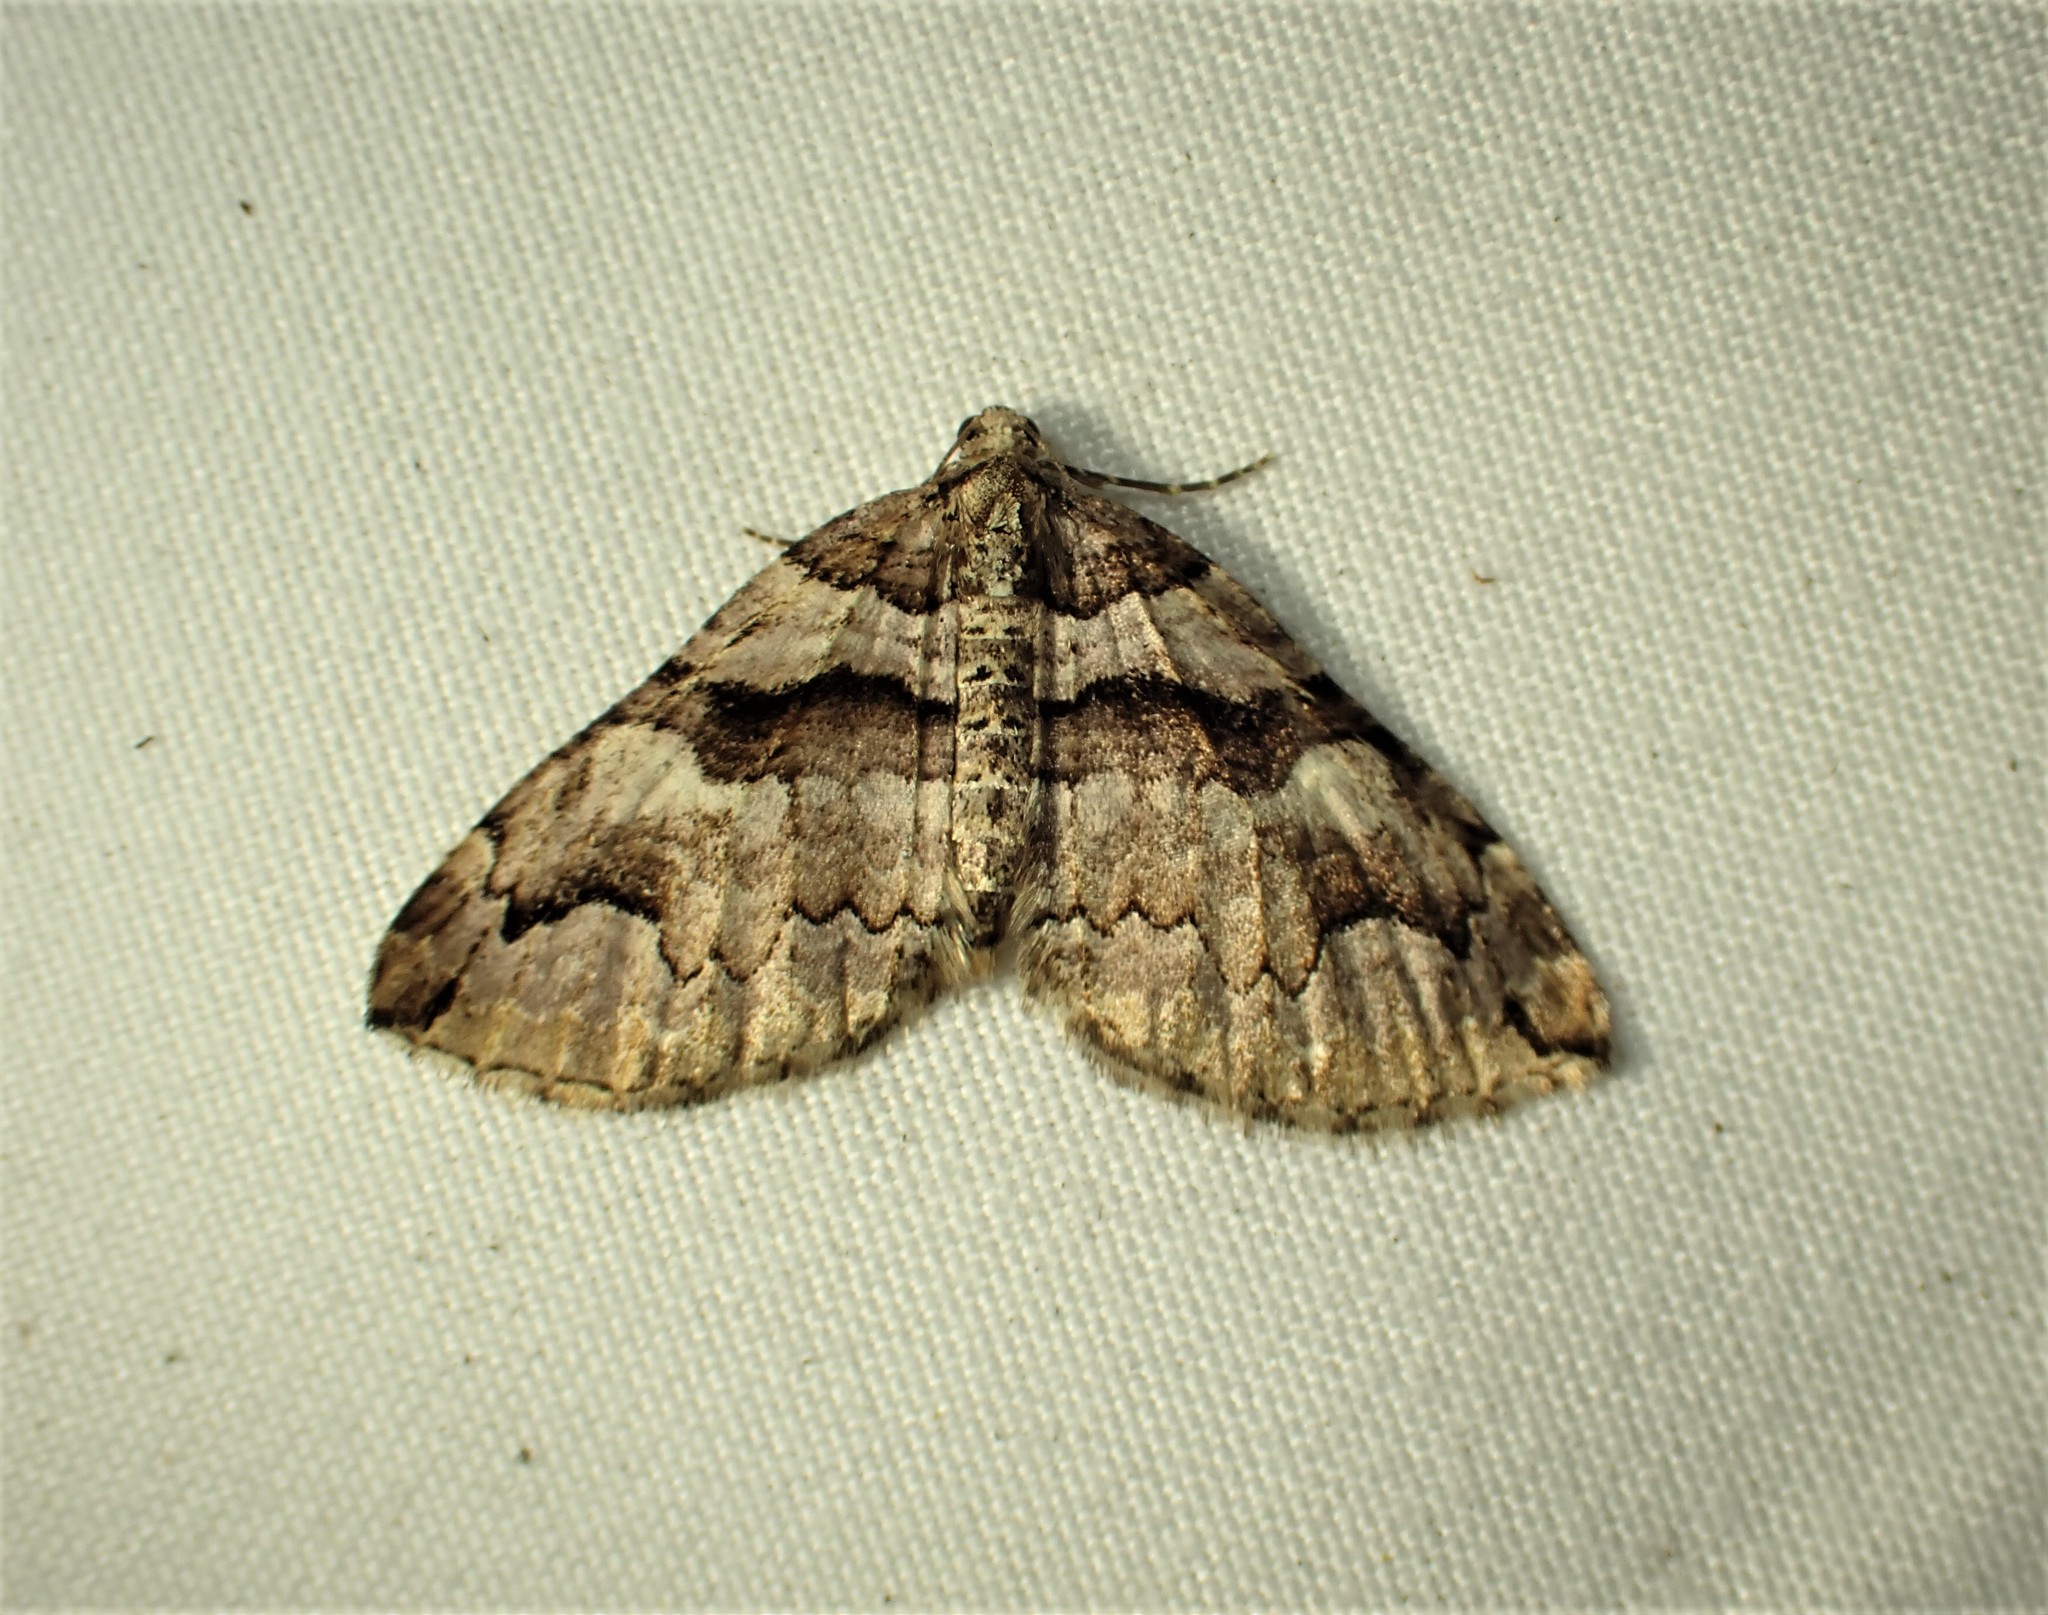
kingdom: Animalia
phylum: Arthropoda
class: Insecta
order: Lepidoptera
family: Geometridae
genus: Anticlea
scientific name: Anticlea vasiliata
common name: Variable carpet
